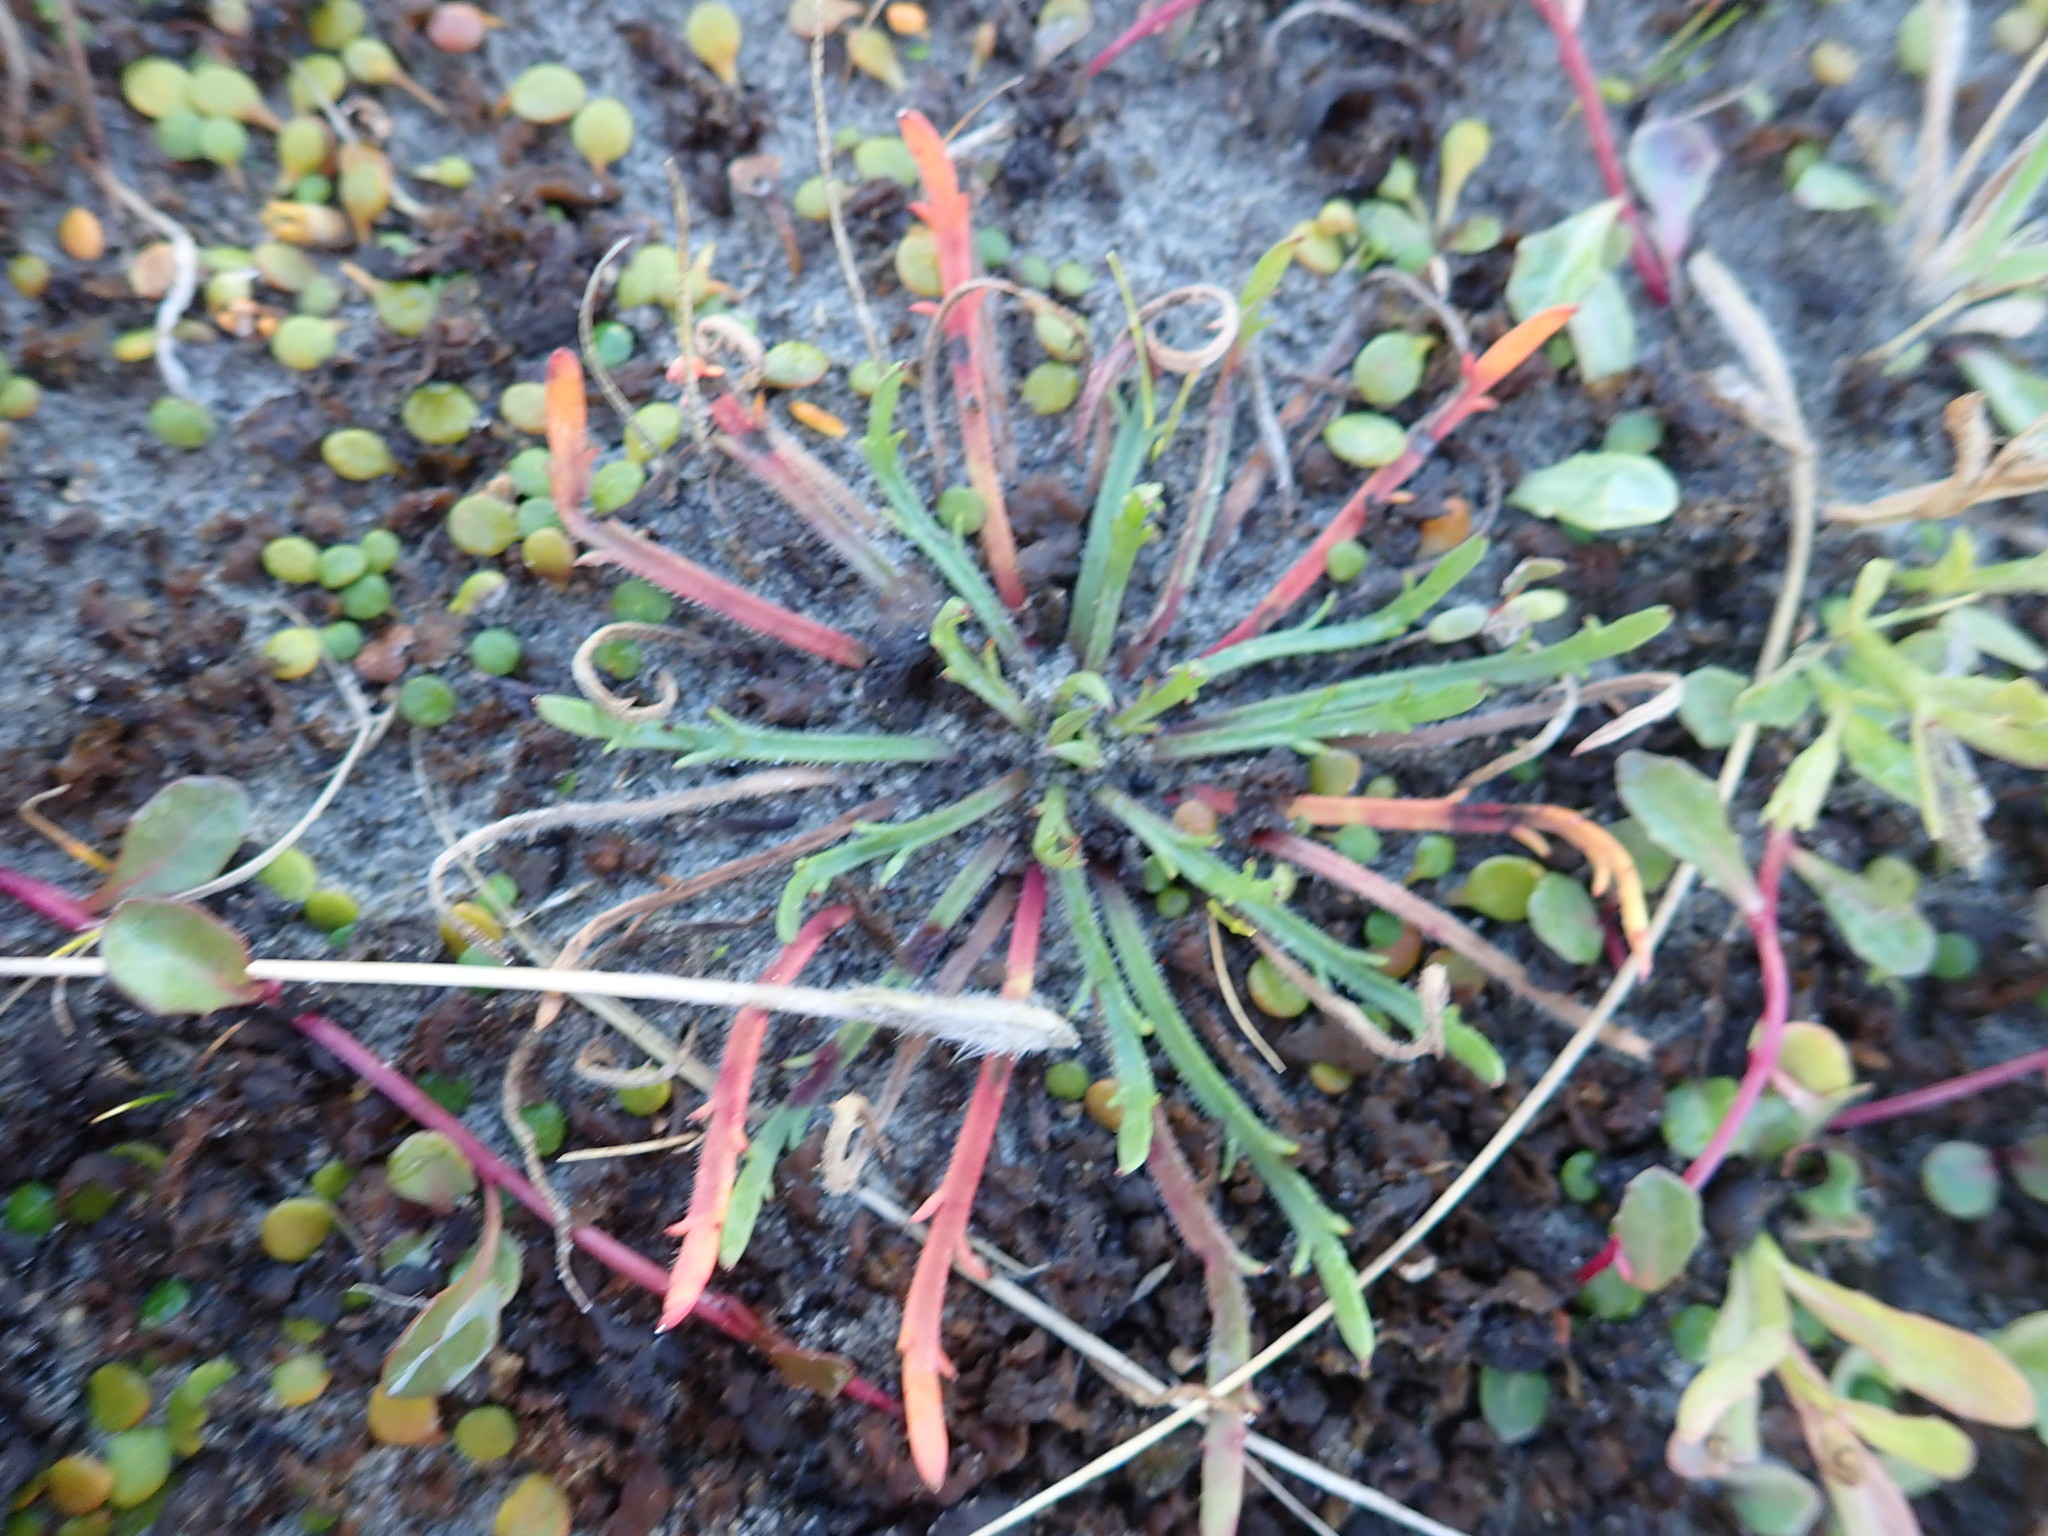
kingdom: Plantae
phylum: Tracheophyta
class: Magnoliopsida
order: Lamiales
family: Plantaginaceae
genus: Plantago
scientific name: Plantago coronopus
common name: Buck's-horn plantain
